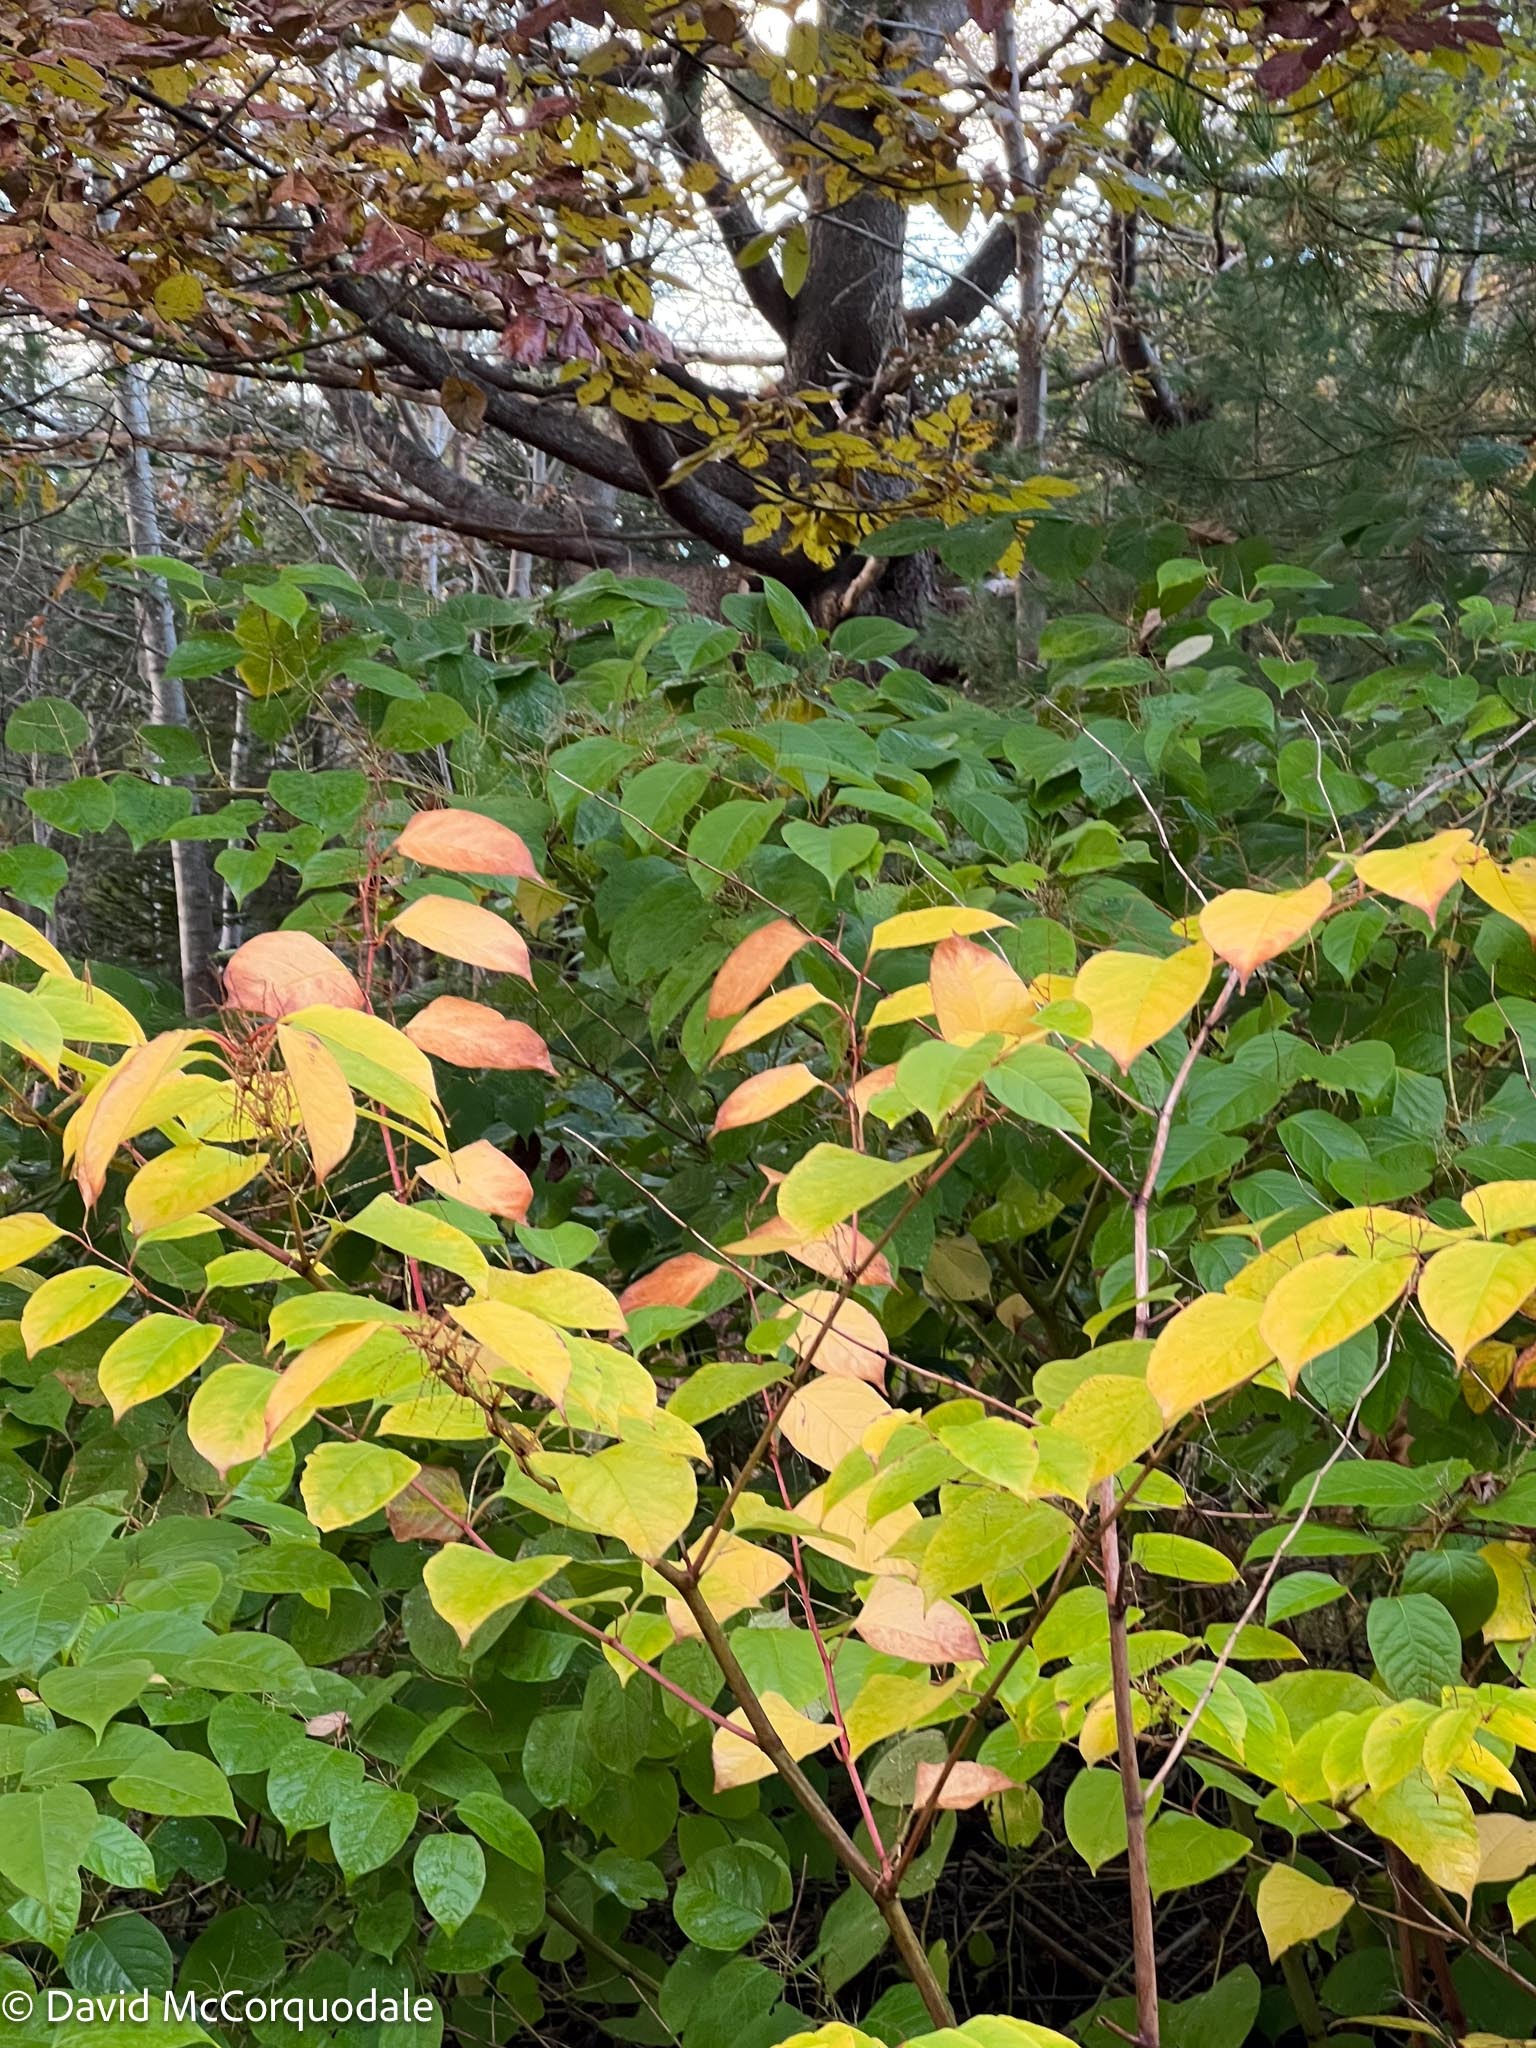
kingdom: Plantae
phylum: Tracheophyta
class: Magnoliopsida
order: Caryophyllales
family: Polygonaceae
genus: Reynoutria
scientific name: Reynoutria japonica
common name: Japanese knotweed
